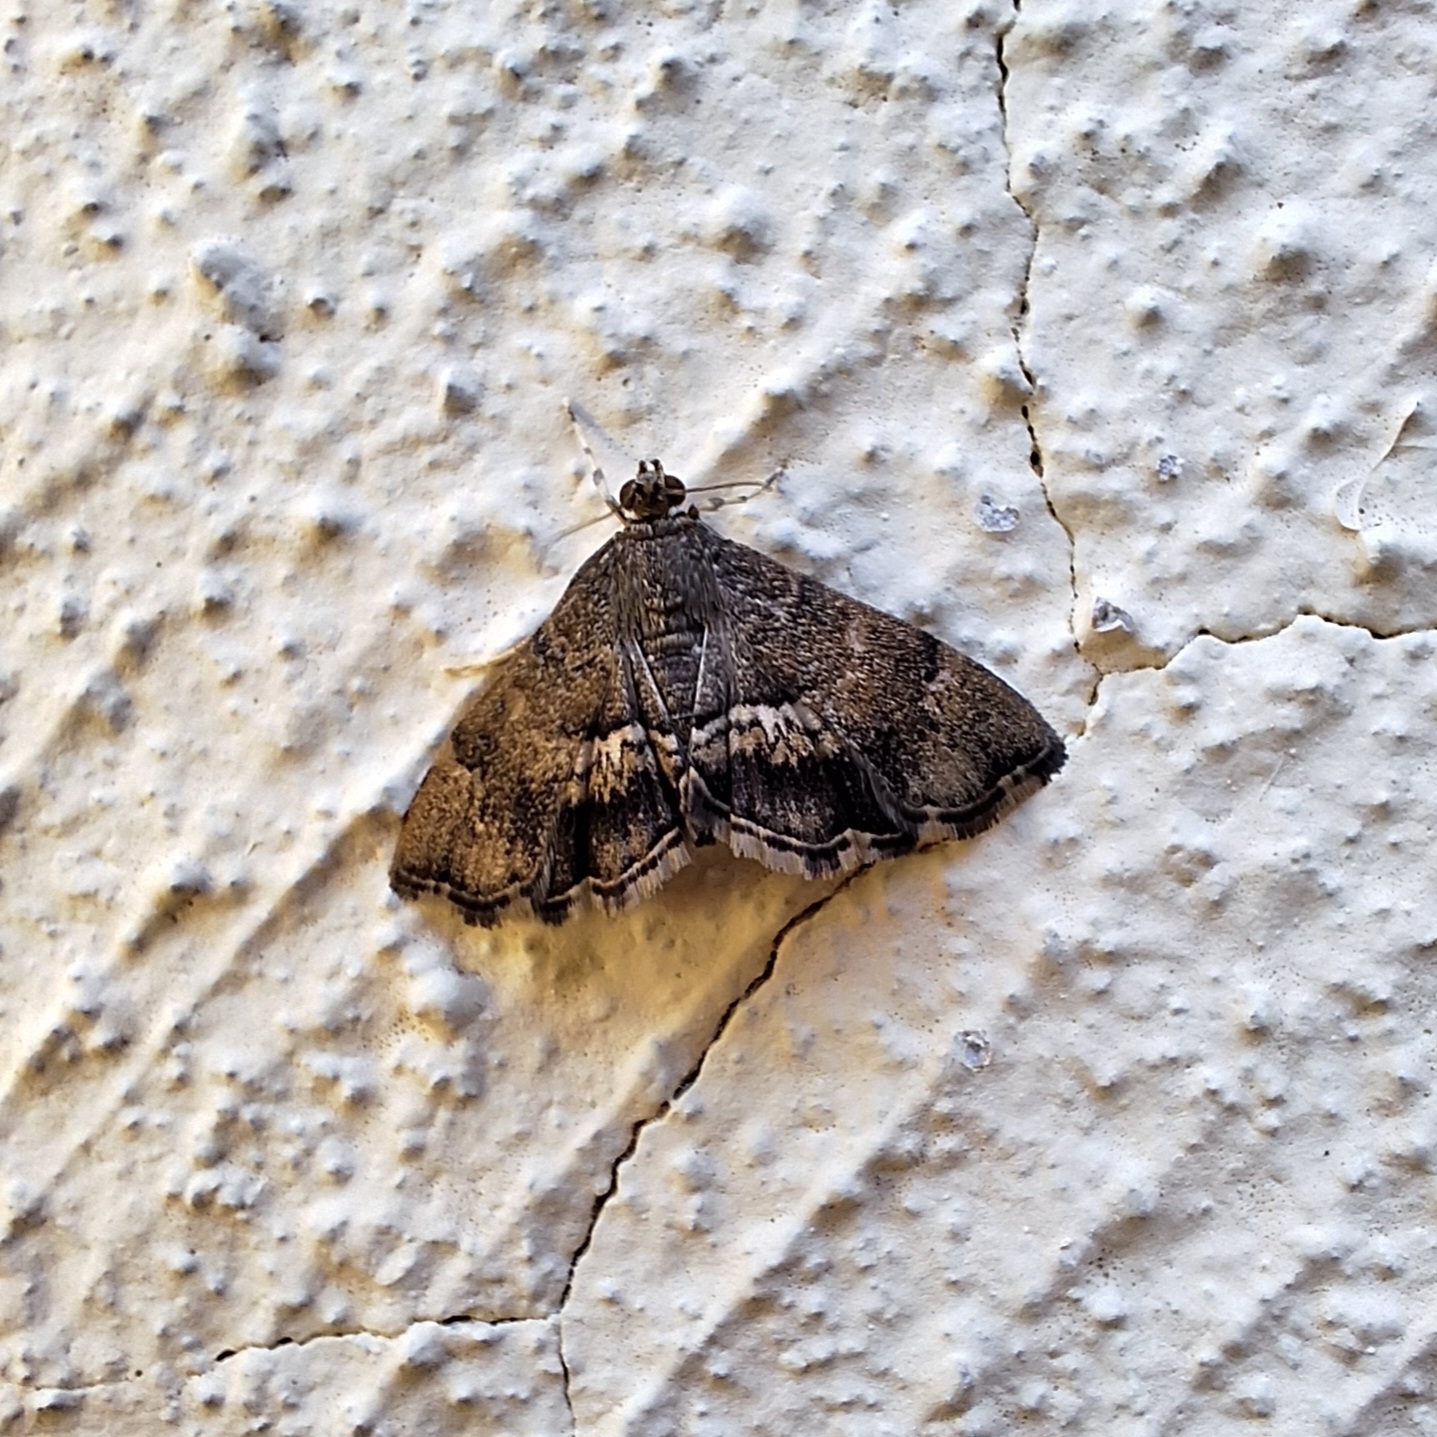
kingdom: Animalia
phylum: Arthropoda
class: Insecta
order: Lepidoptera
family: Crambidae
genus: Hymenia
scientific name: Hymenia perspectalis
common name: Spotted beet webworm
